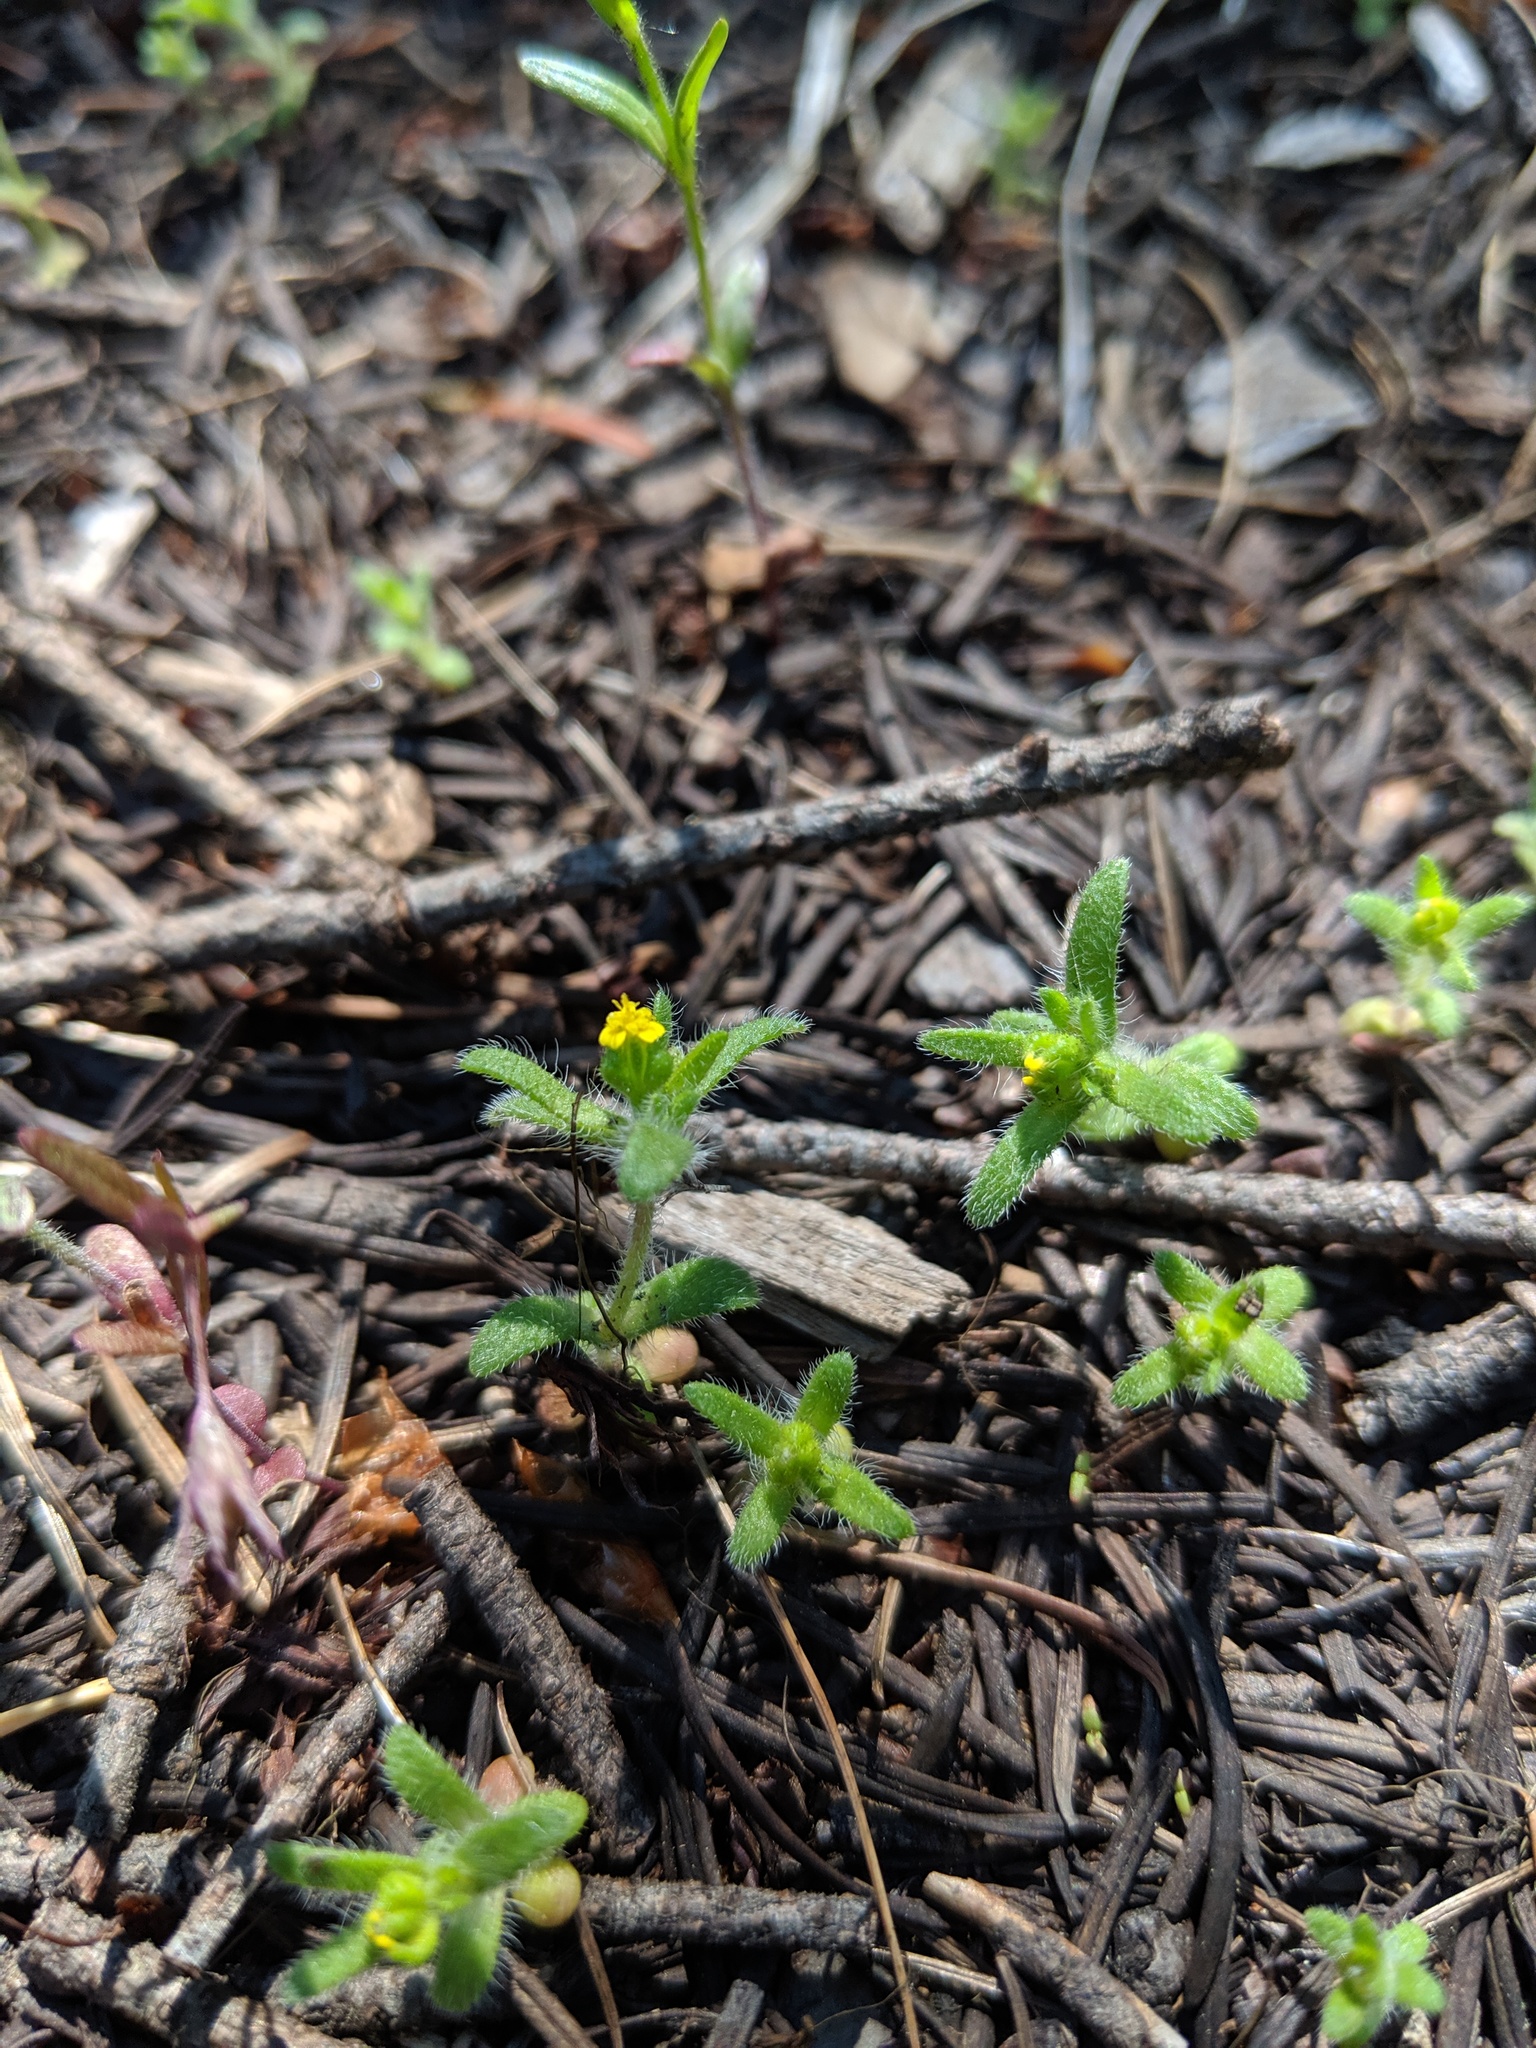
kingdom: Plantae
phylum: Tracheophyta
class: Magnoliopsida
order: Asterales
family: Asteraceae
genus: Hemizonella
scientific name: Hemizonella minima
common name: Opposite-leaved tarweed
